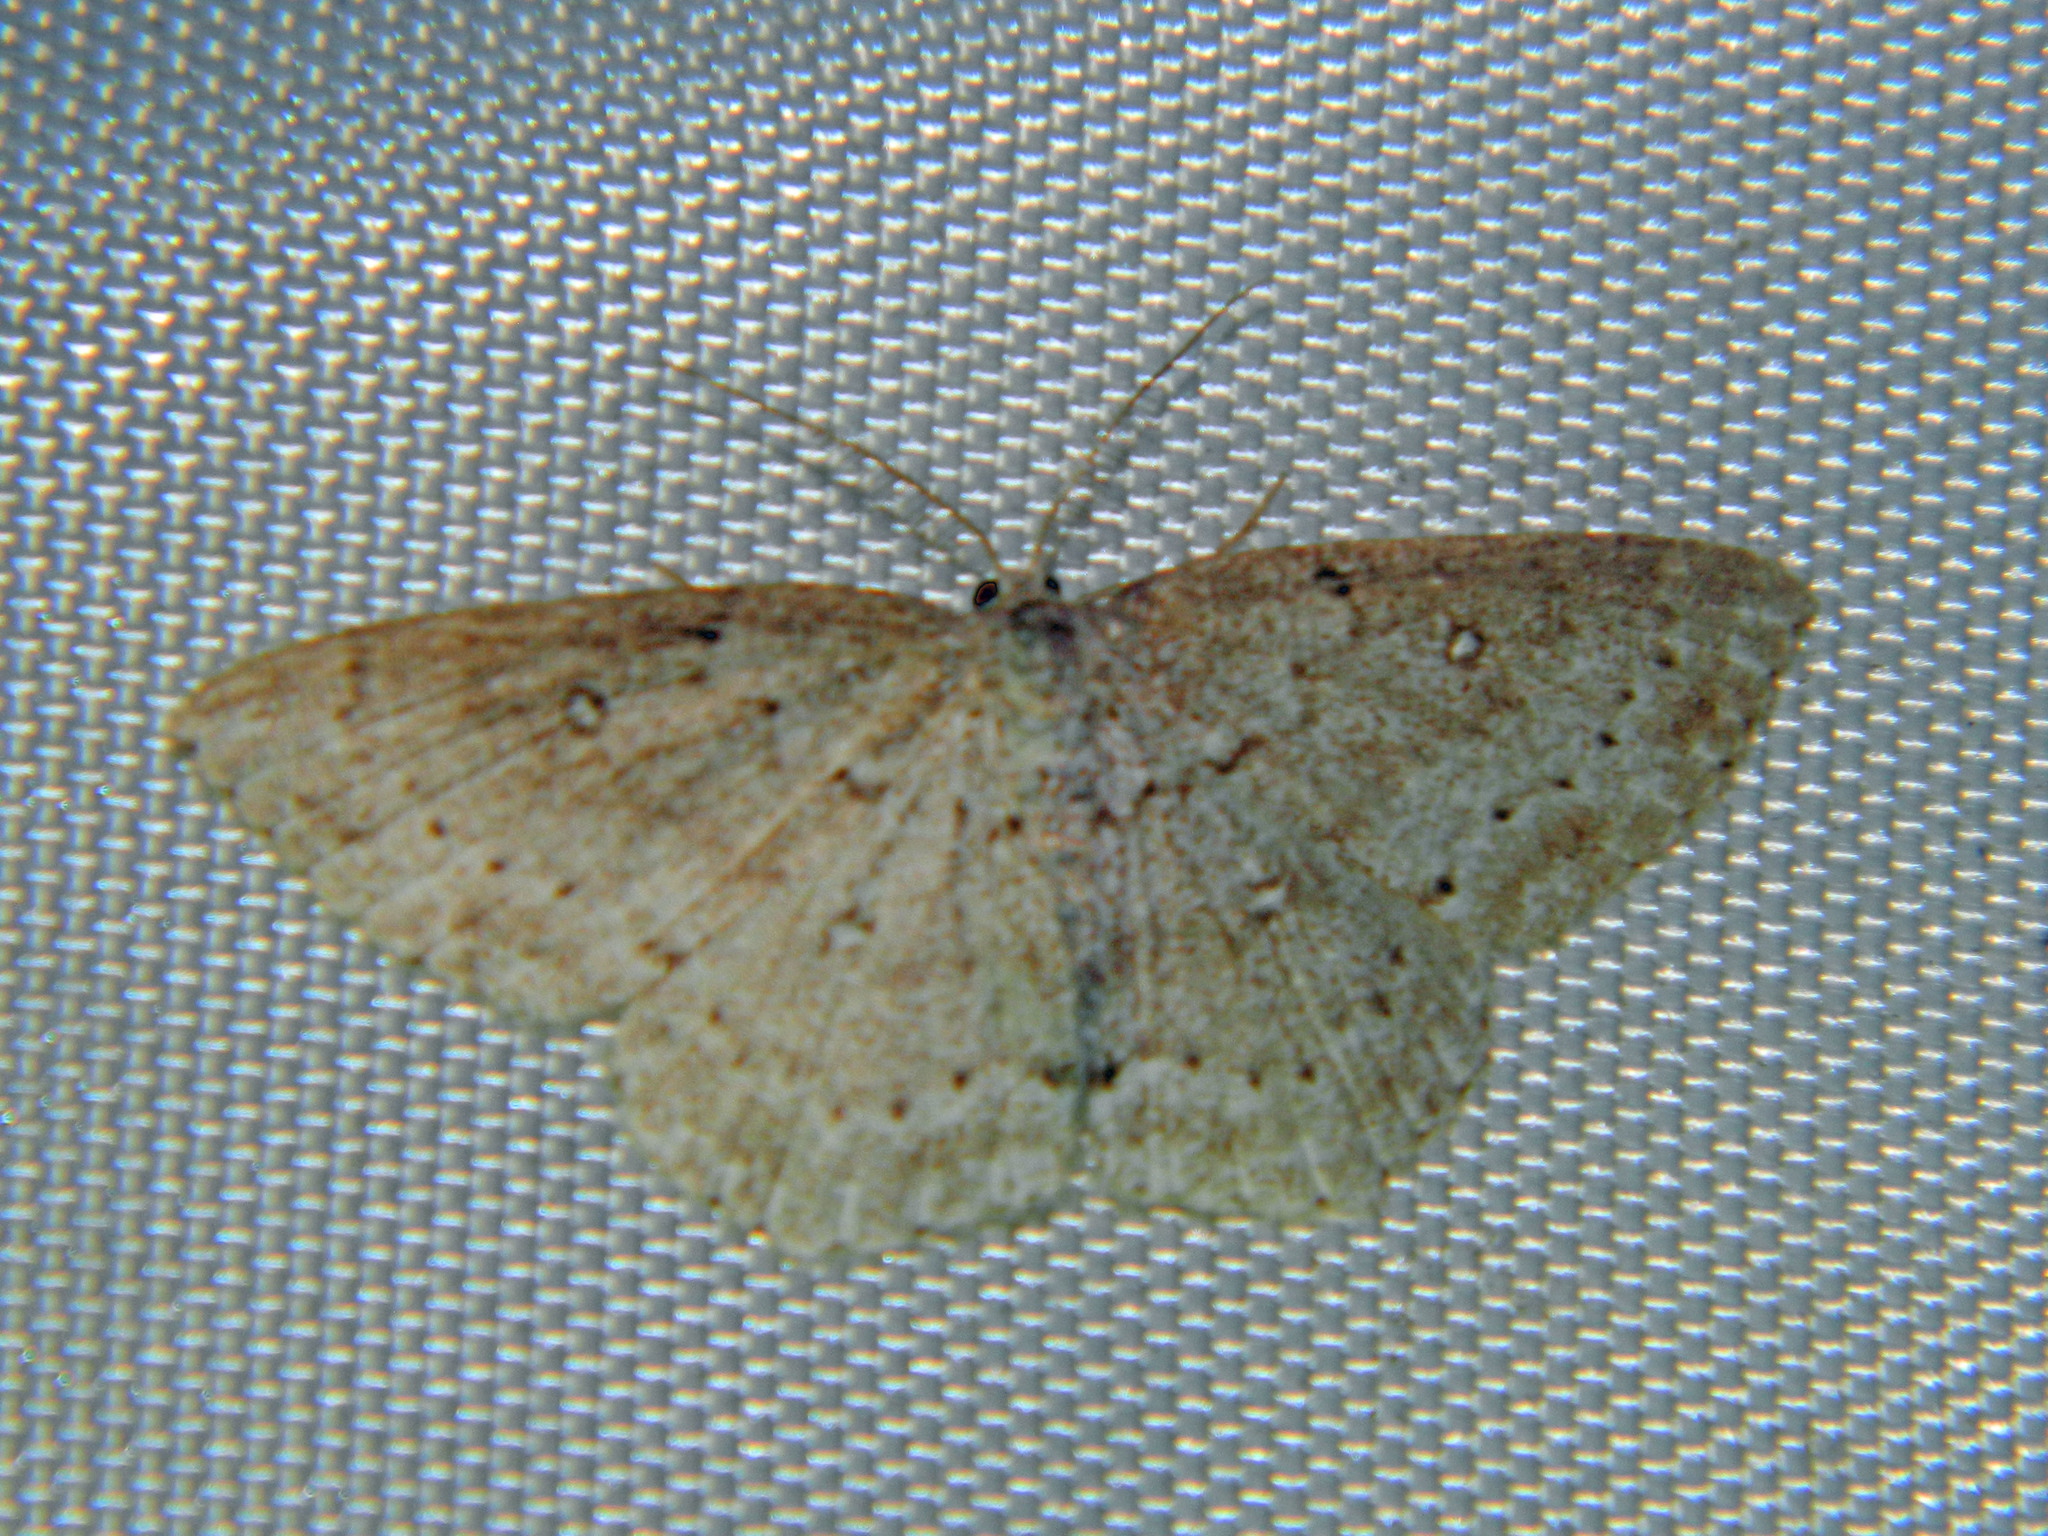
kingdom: Animalia
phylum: Arthropoda
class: Insecta
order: Lepidoptera
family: Geometridae
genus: Cyclophora
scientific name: Cyclophora pendulinaria
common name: Sweet fern geometer
